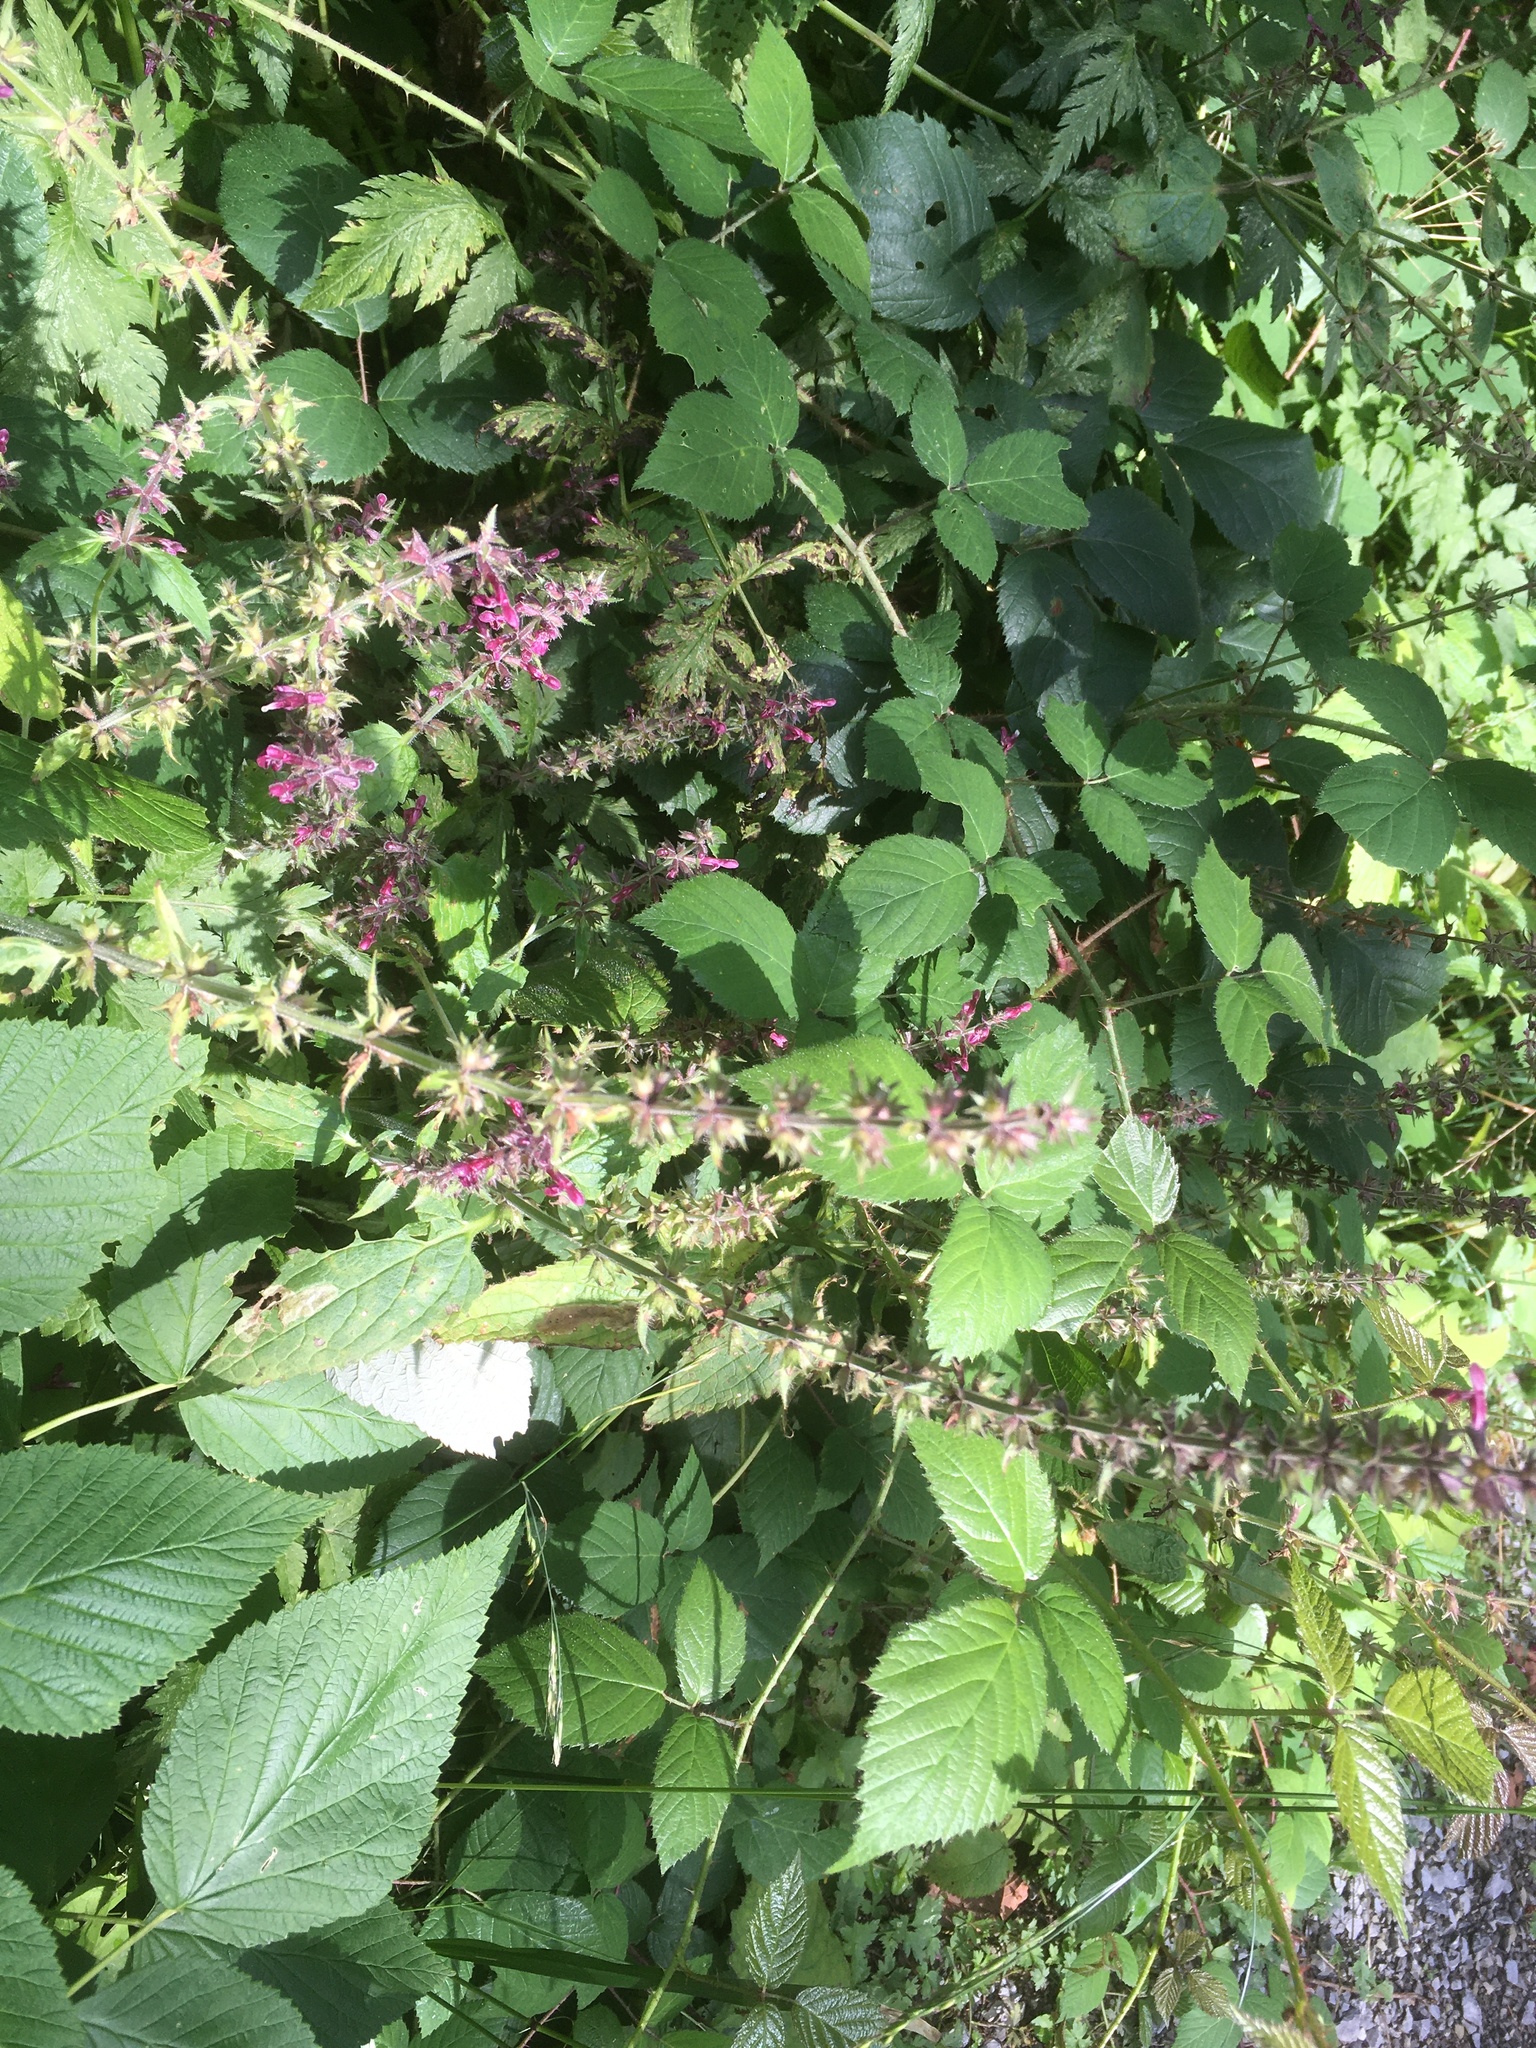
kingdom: Plantae
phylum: Tracheophyta
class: Magnoliopsida
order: Lamiales
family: Lamiaceae
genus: Stachys
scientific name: Stachys sylvatica
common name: Hedge woundwort
